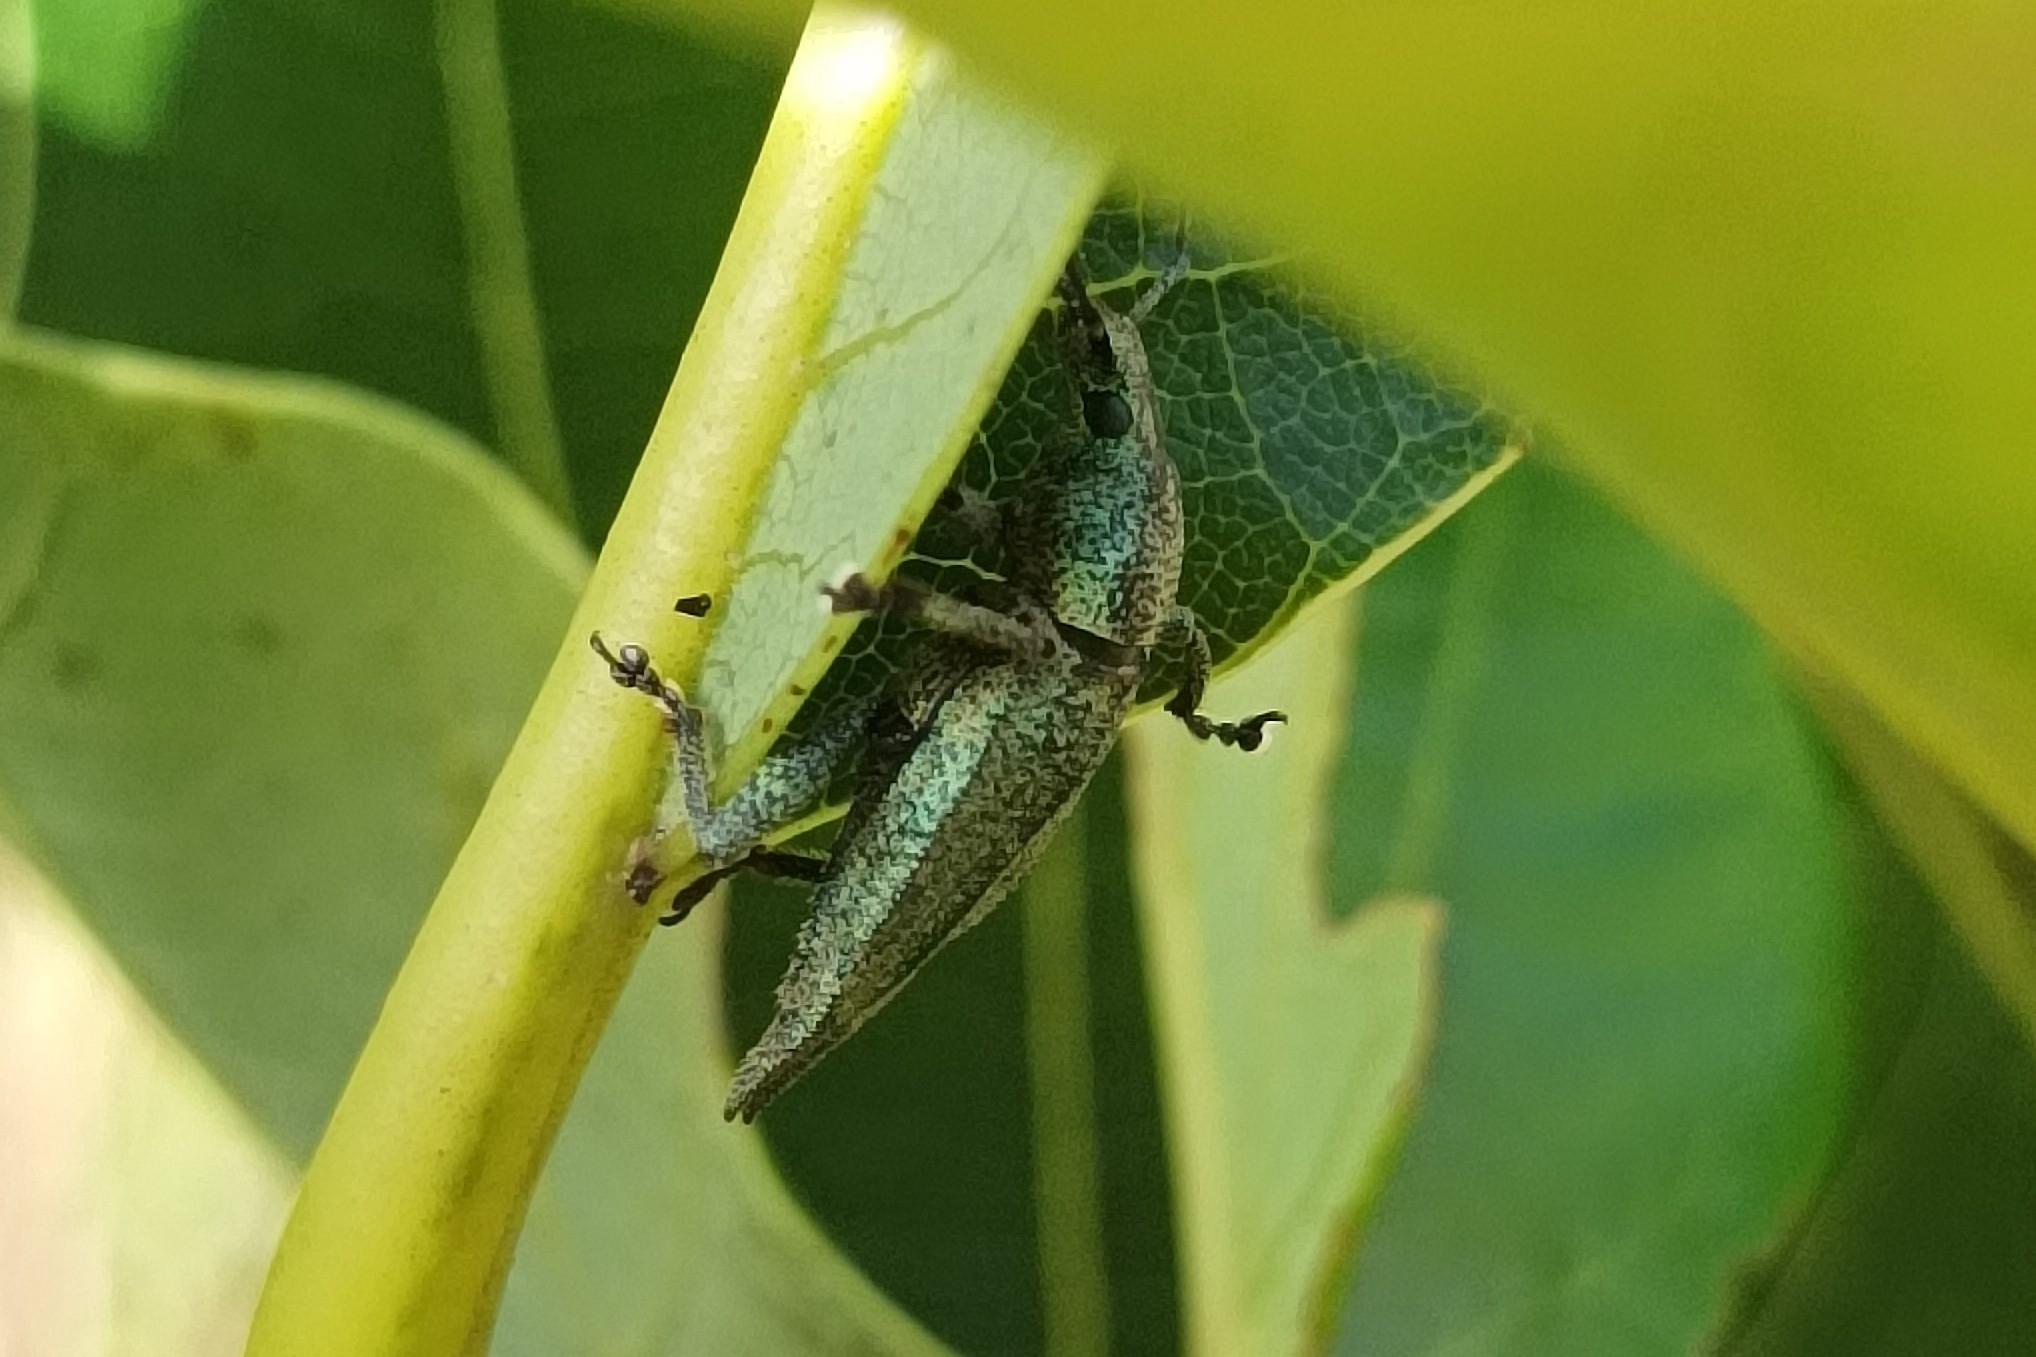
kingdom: Animalia
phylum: Arthropoda
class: Insecta
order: Coleoptera
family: Curculionidae
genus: Elytrurus
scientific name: Elytrurus caudatus
